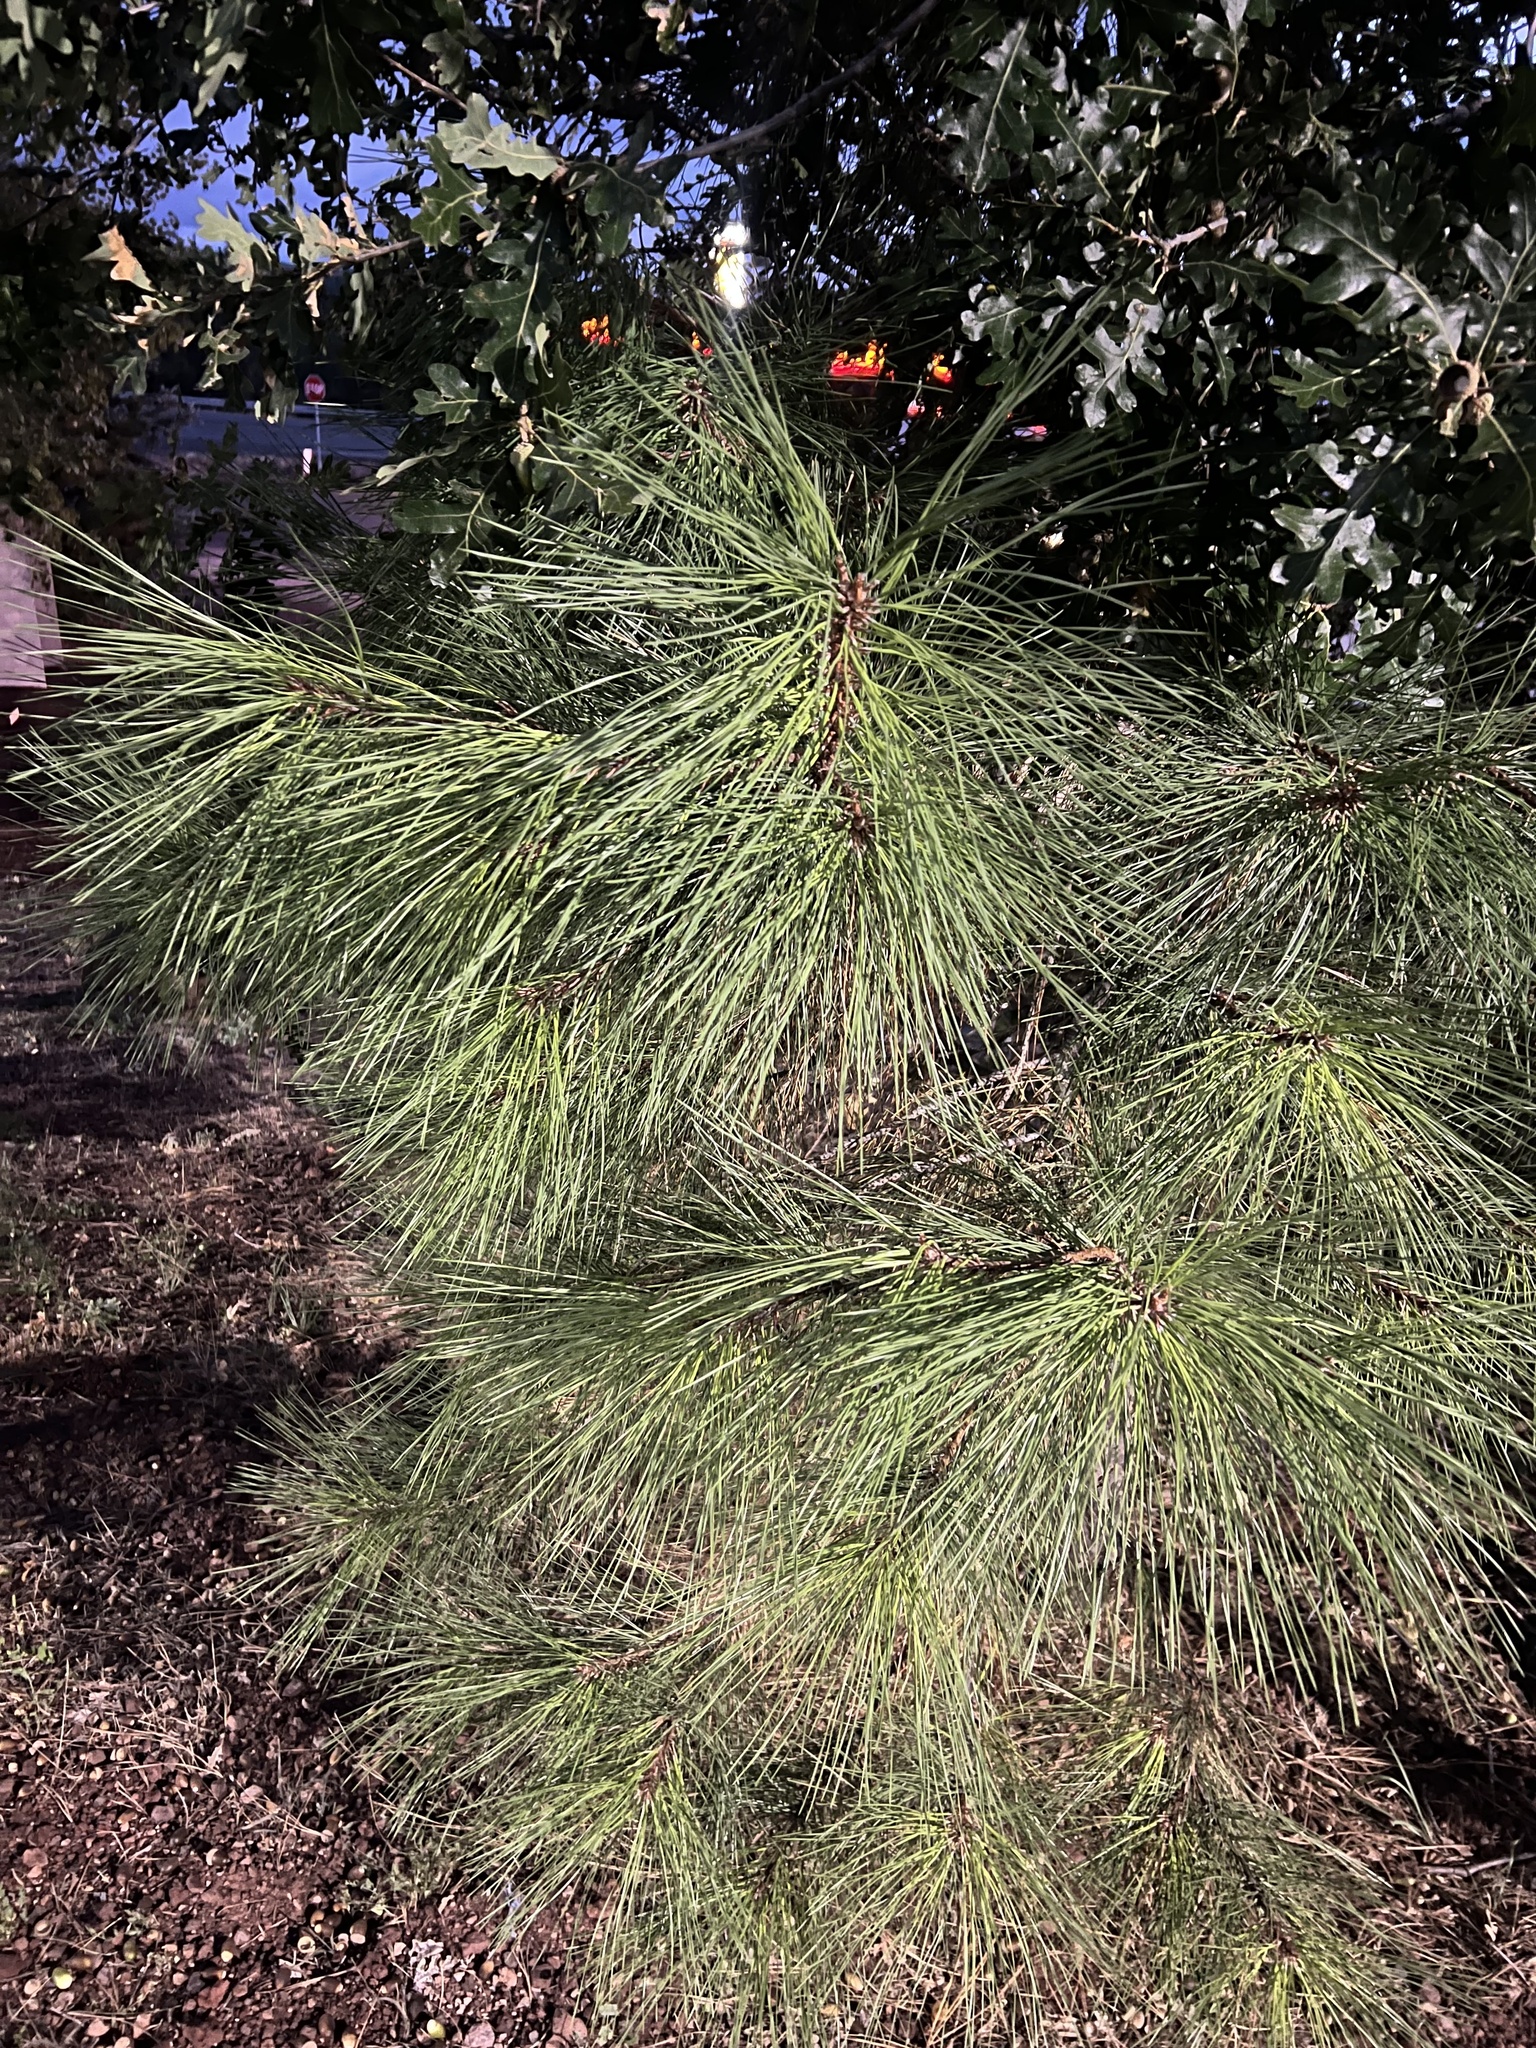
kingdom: Plantae
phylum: Tracheophyta
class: Pinopsida
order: Pinales
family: Pinaceae
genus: Pinus
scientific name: Pinus ponderosa
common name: Western yellow-pine
